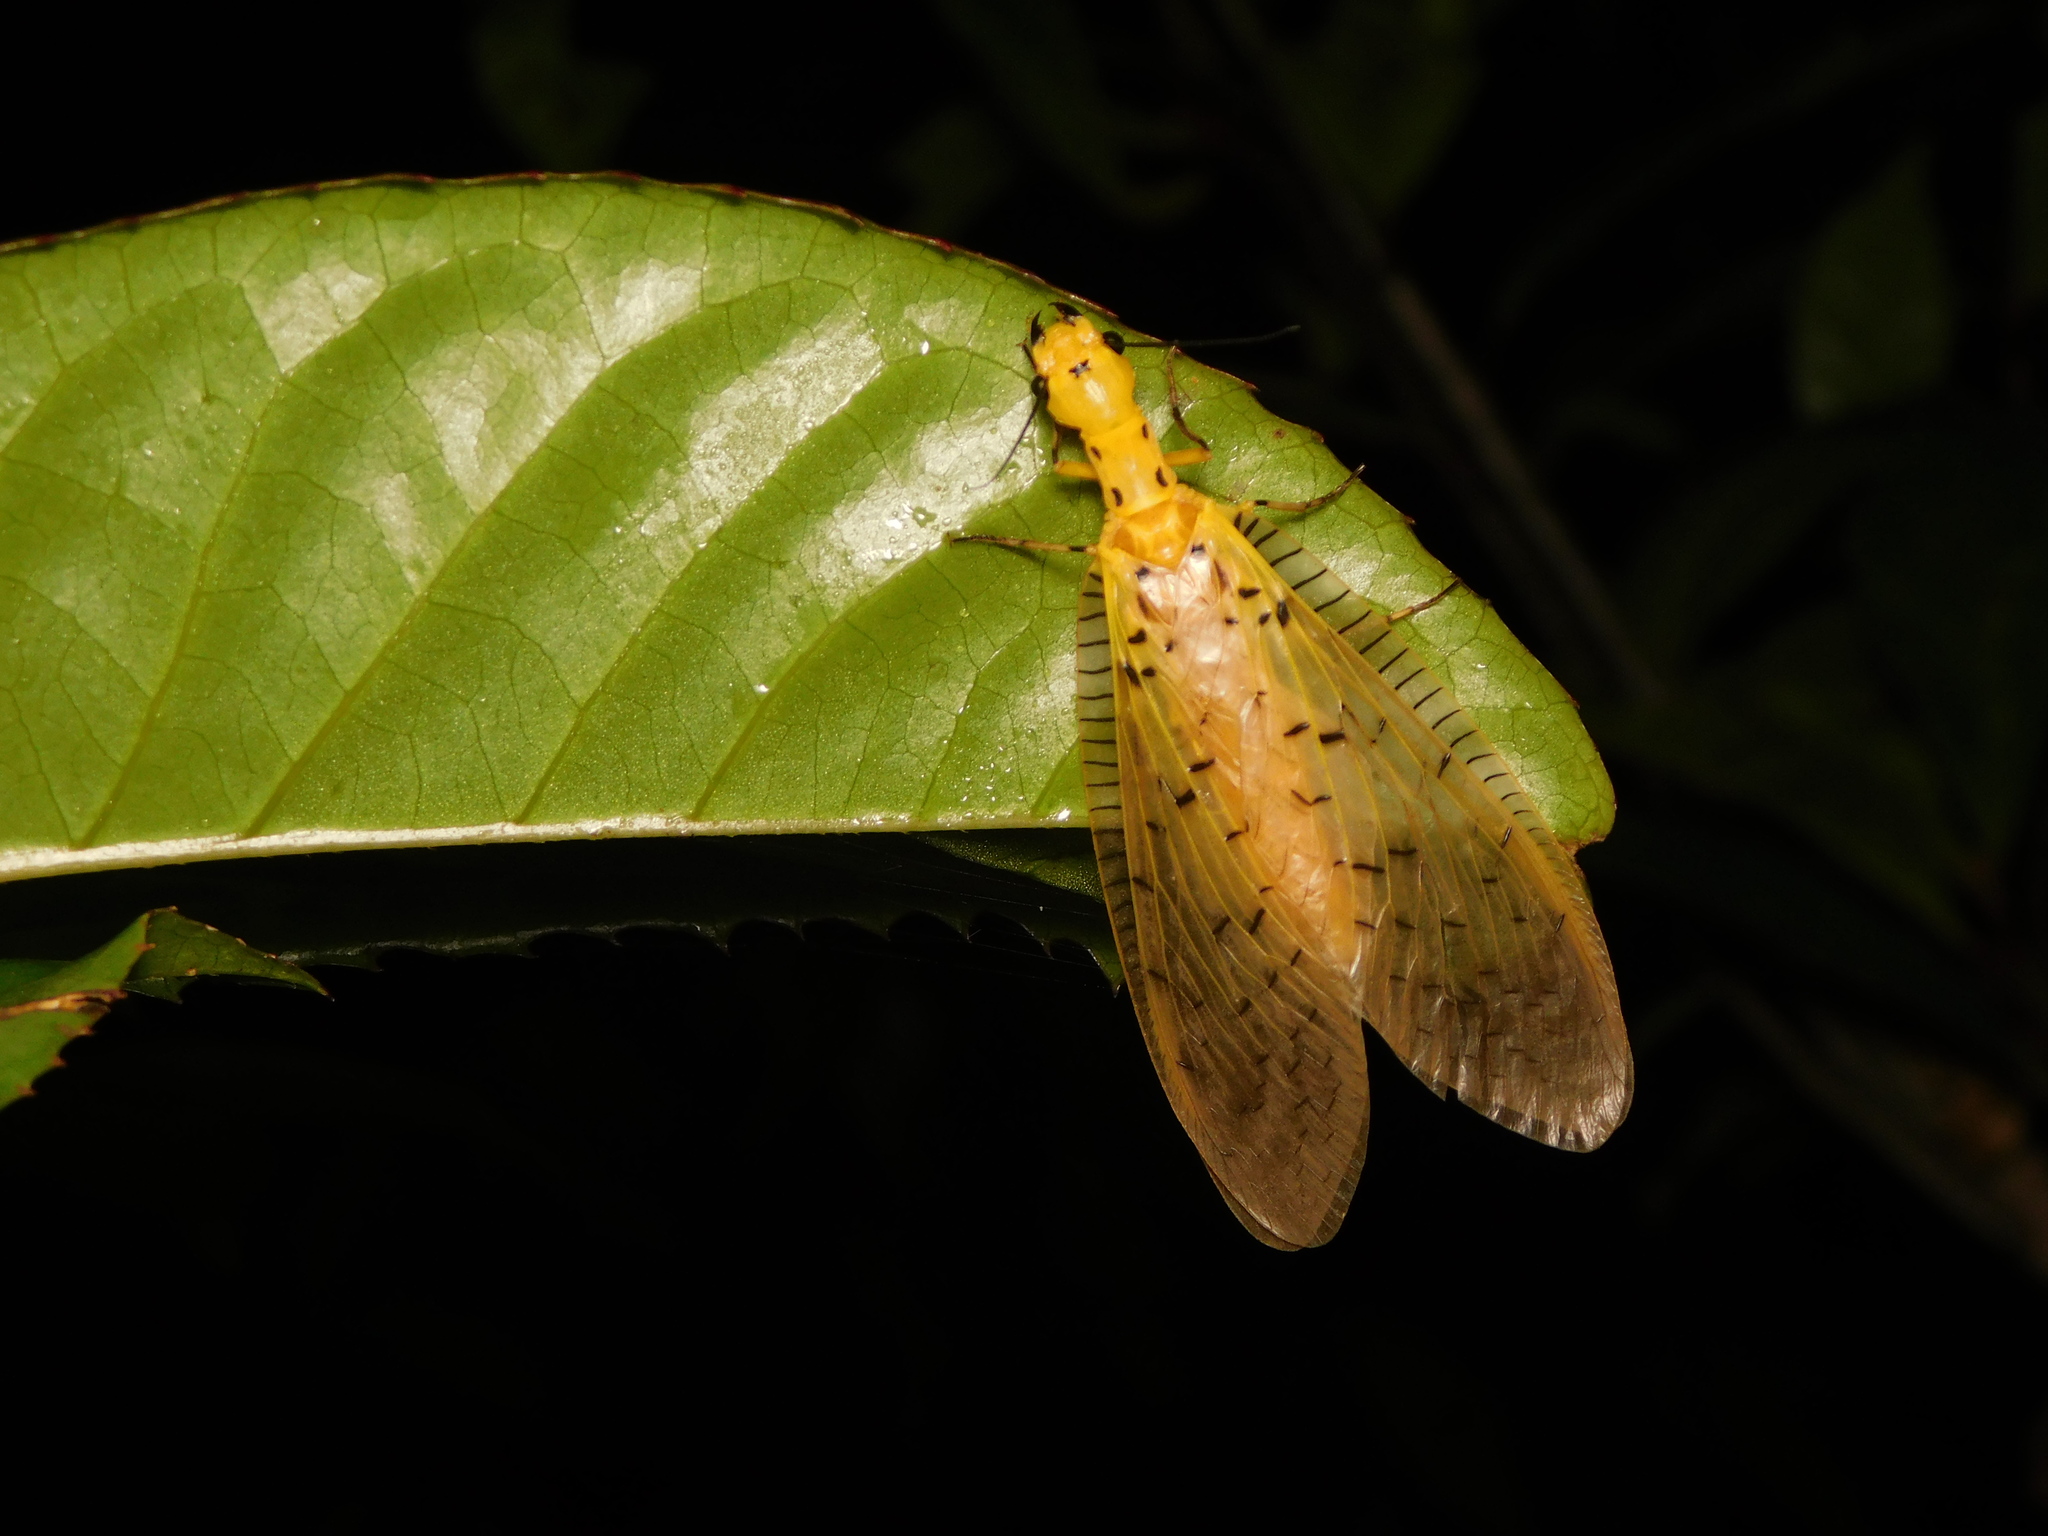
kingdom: Animalia
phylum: Arthropoda
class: Insecta
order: Lepidoptera
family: Geometridae
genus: Racotis
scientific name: Racotis
